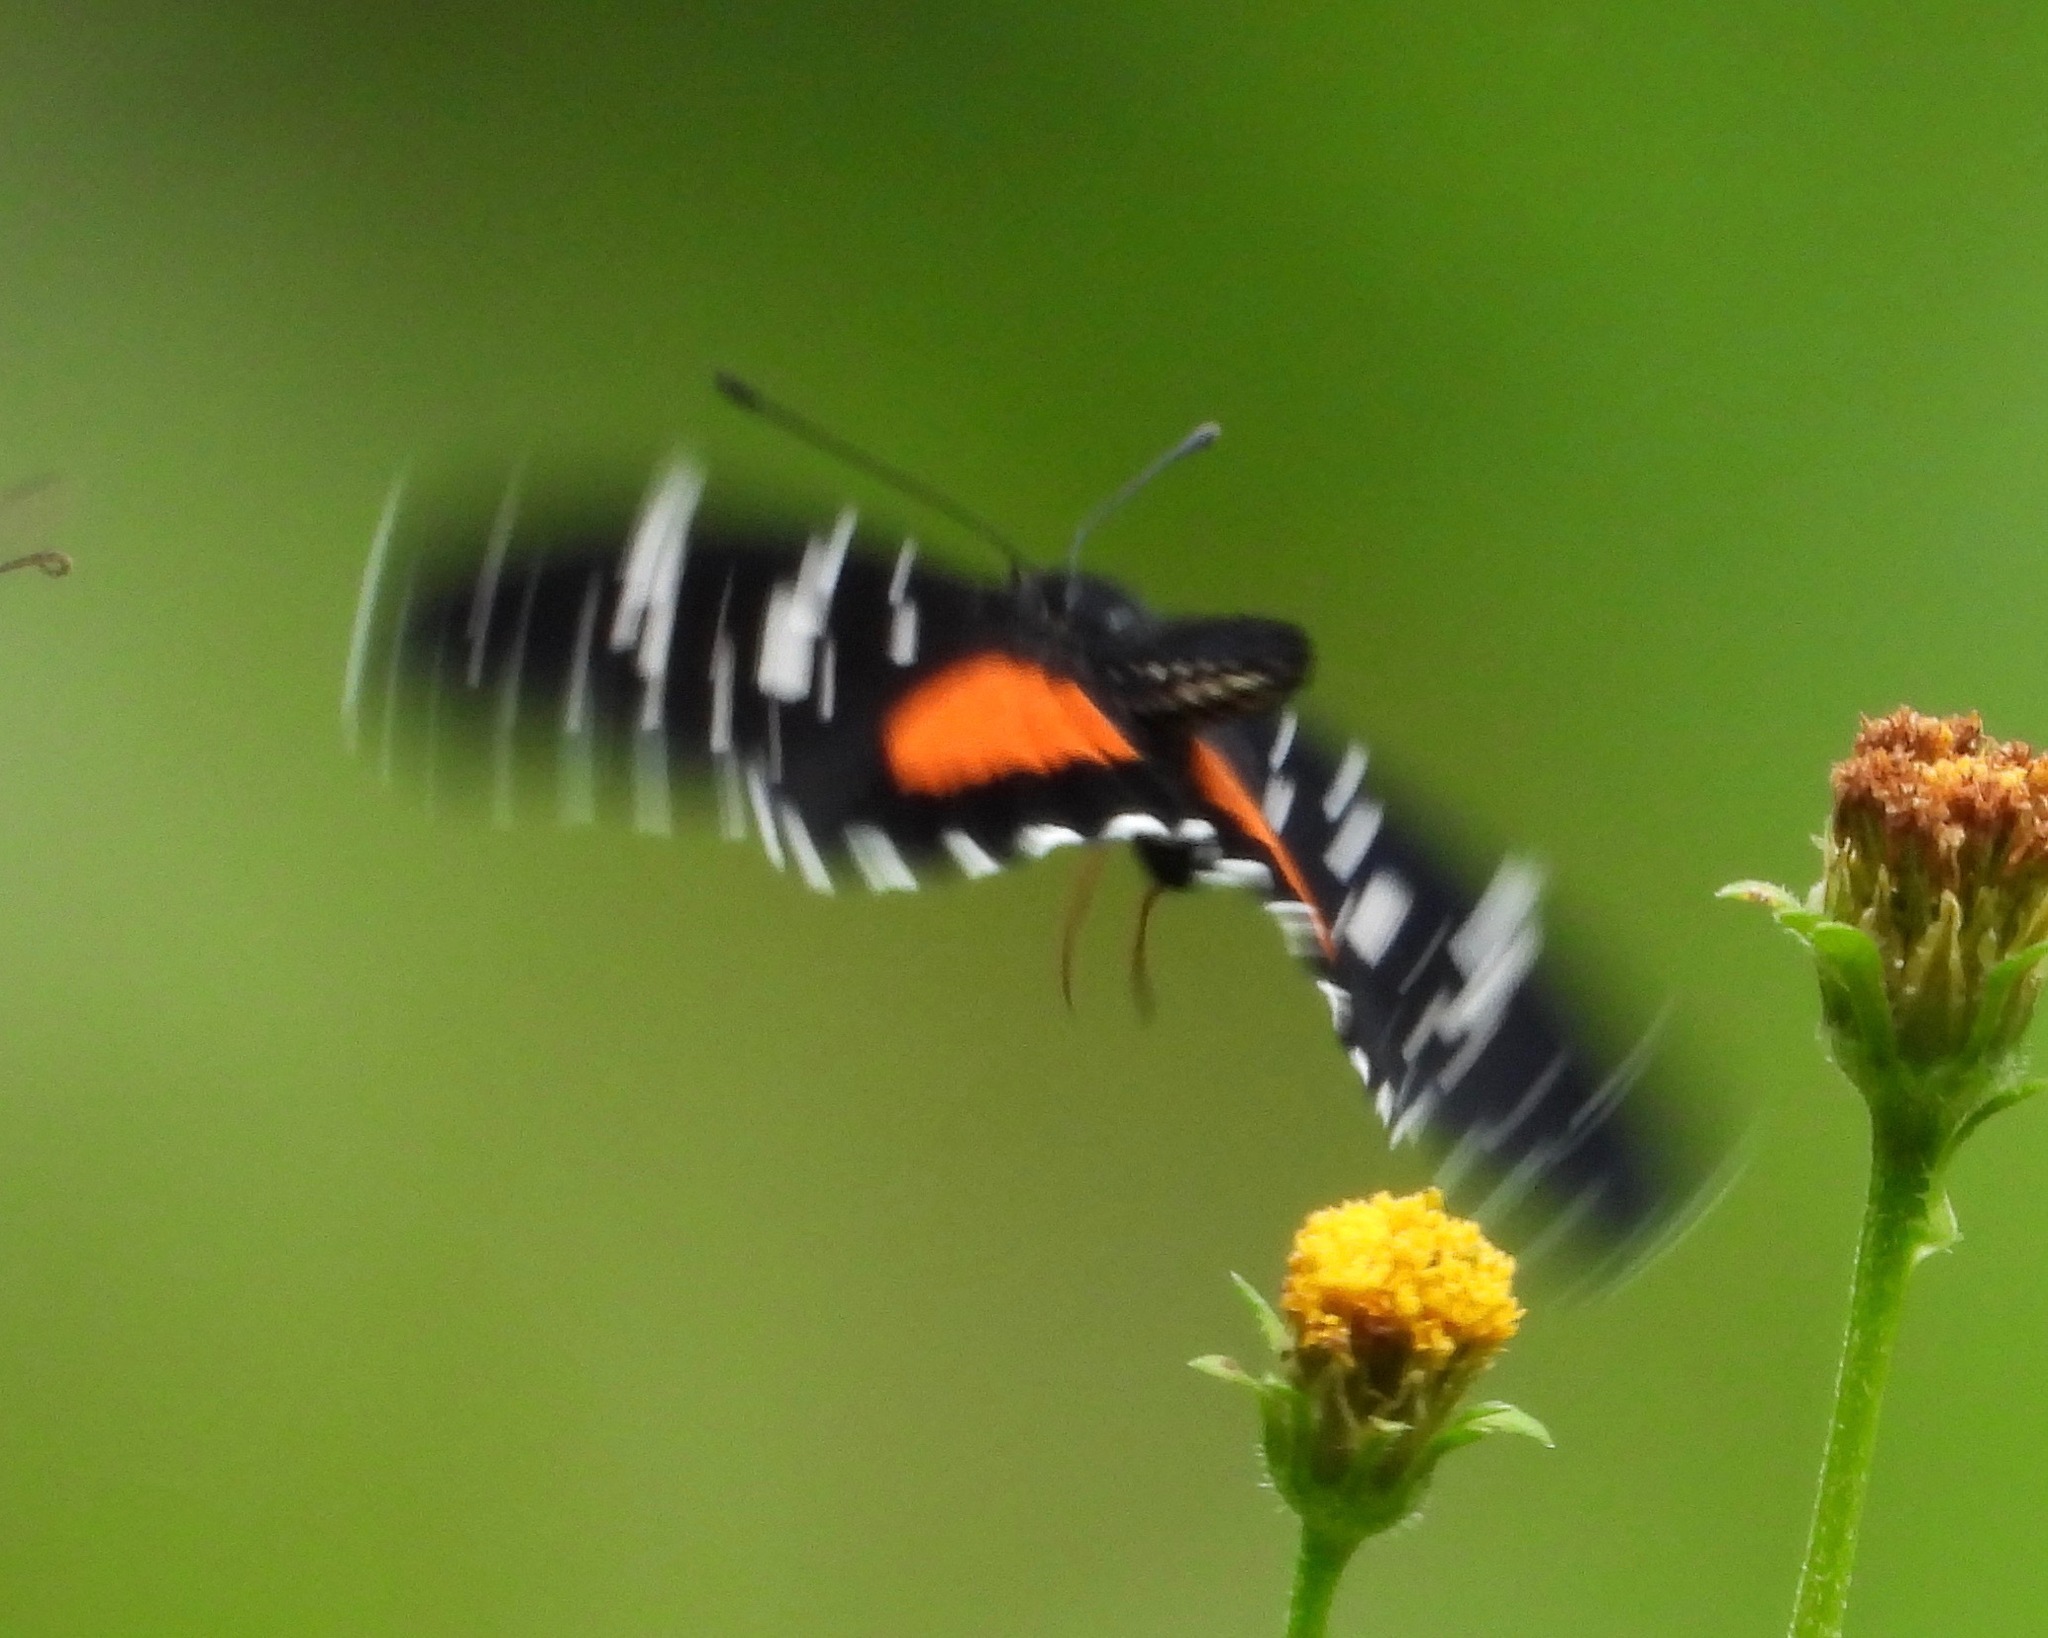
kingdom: Animalia
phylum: Arthropoda
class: Insecta
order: Lepidoptera
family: Nymphalidae
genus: Chlosyne
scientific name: Chlosyne janais
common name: Crimson patch
